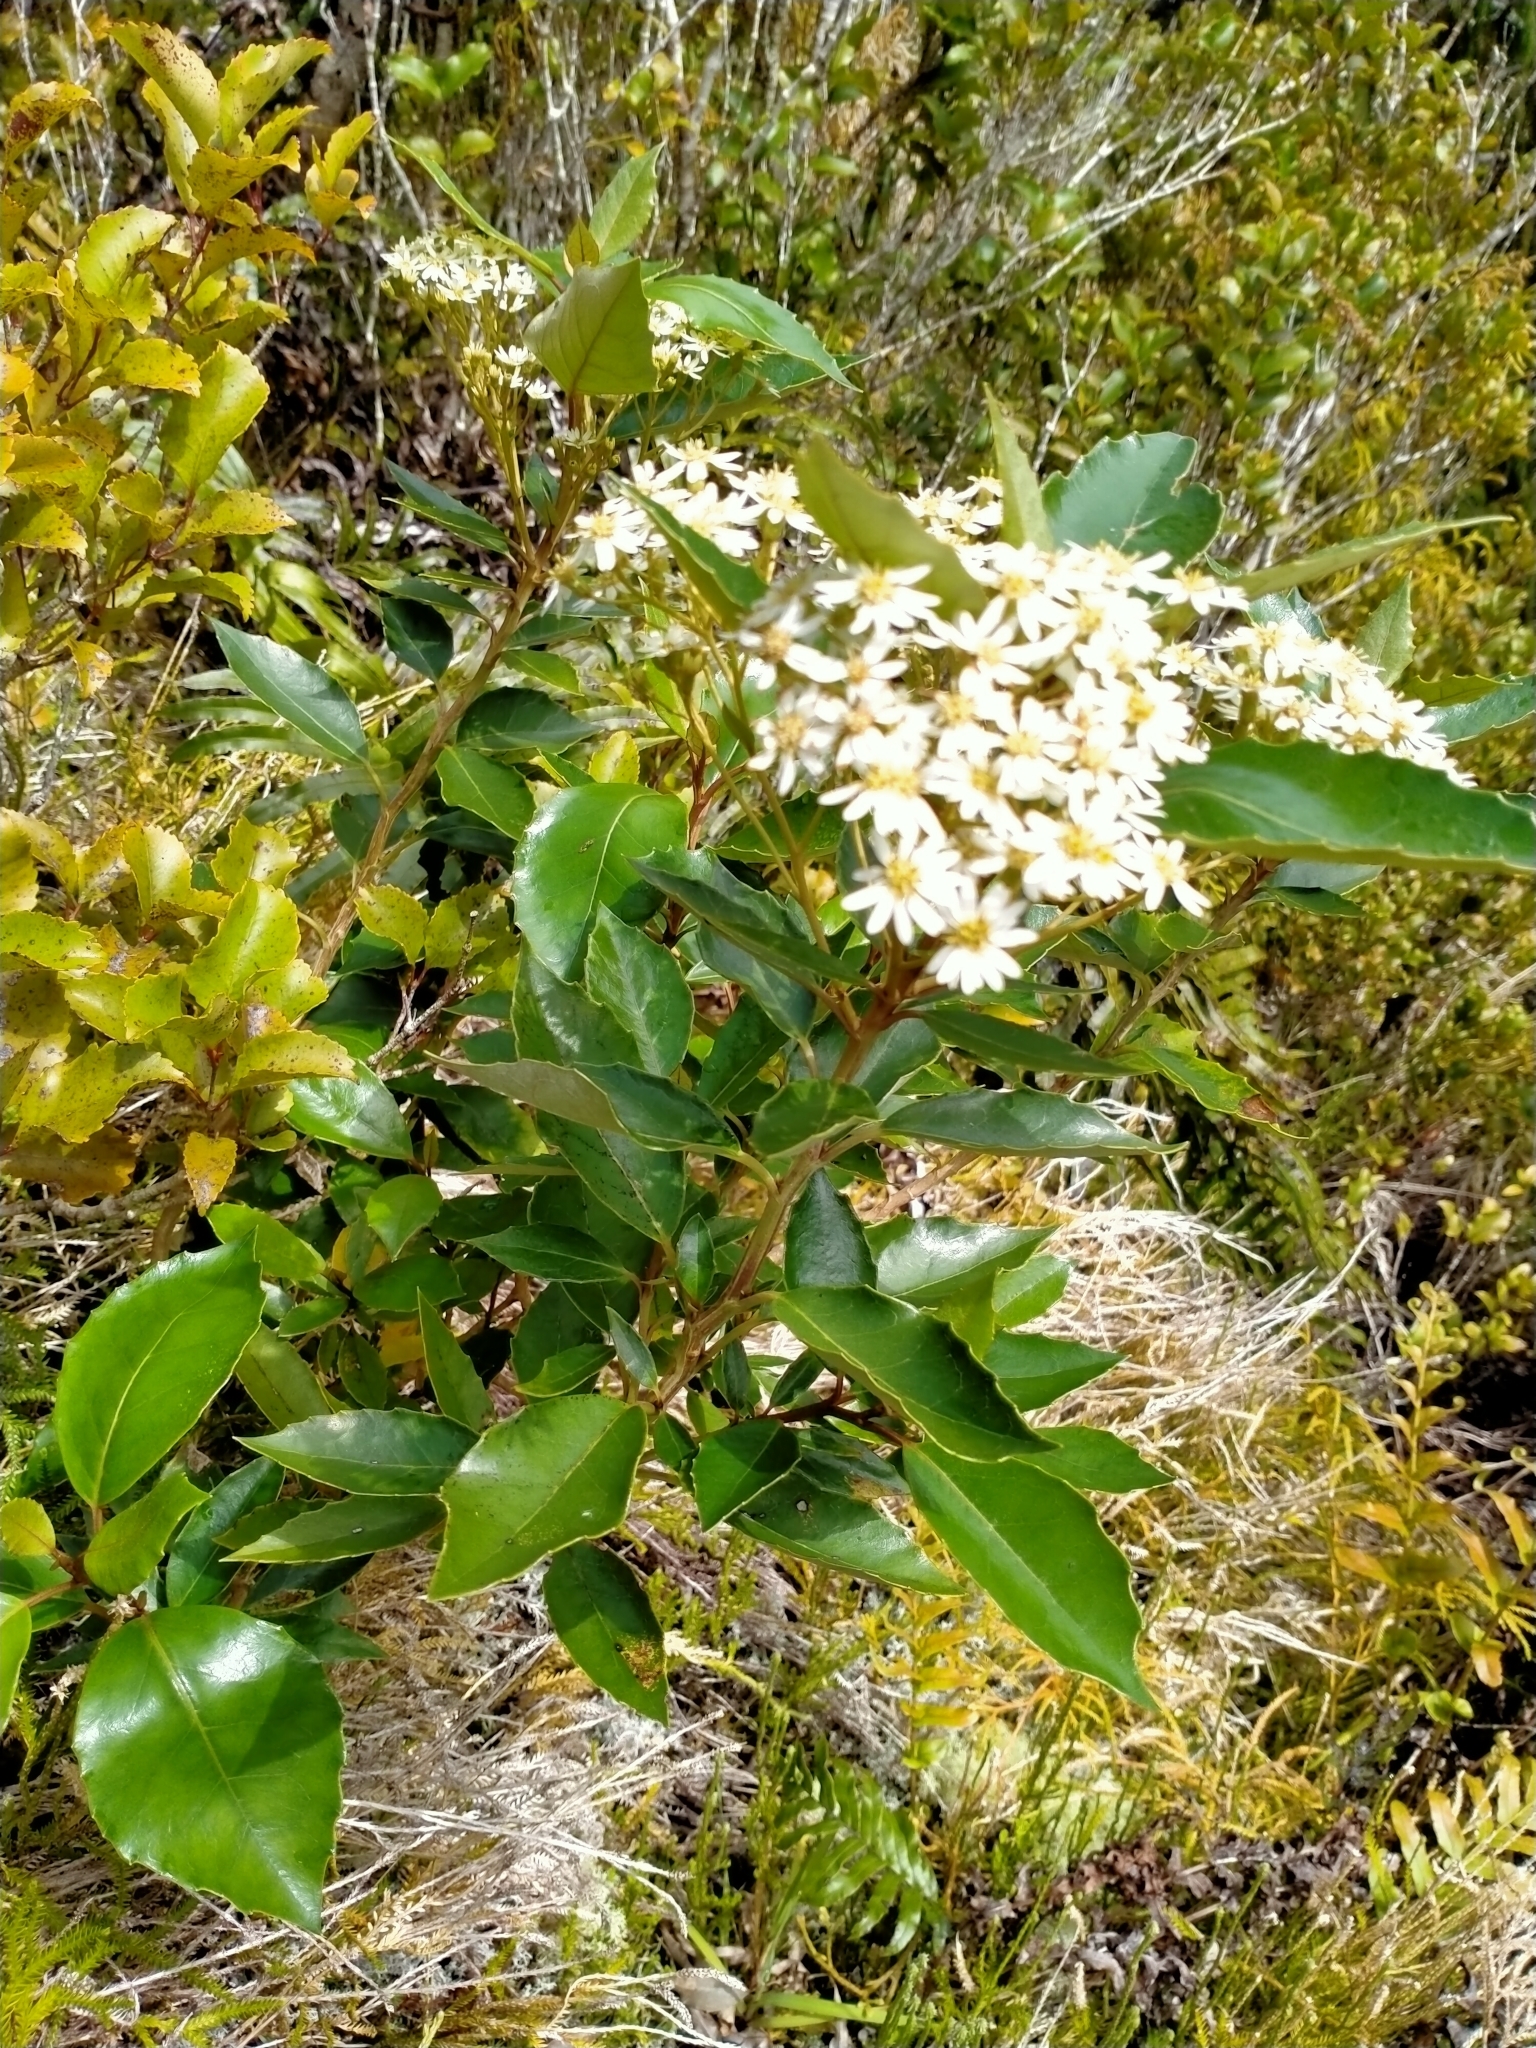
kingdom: Plantae
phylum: Tracheophyta
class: Magnoliopsida
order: Asterales
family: Asteraceae
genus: Olearia
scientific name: Olearia arborescens
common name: Glossy tree daisy
